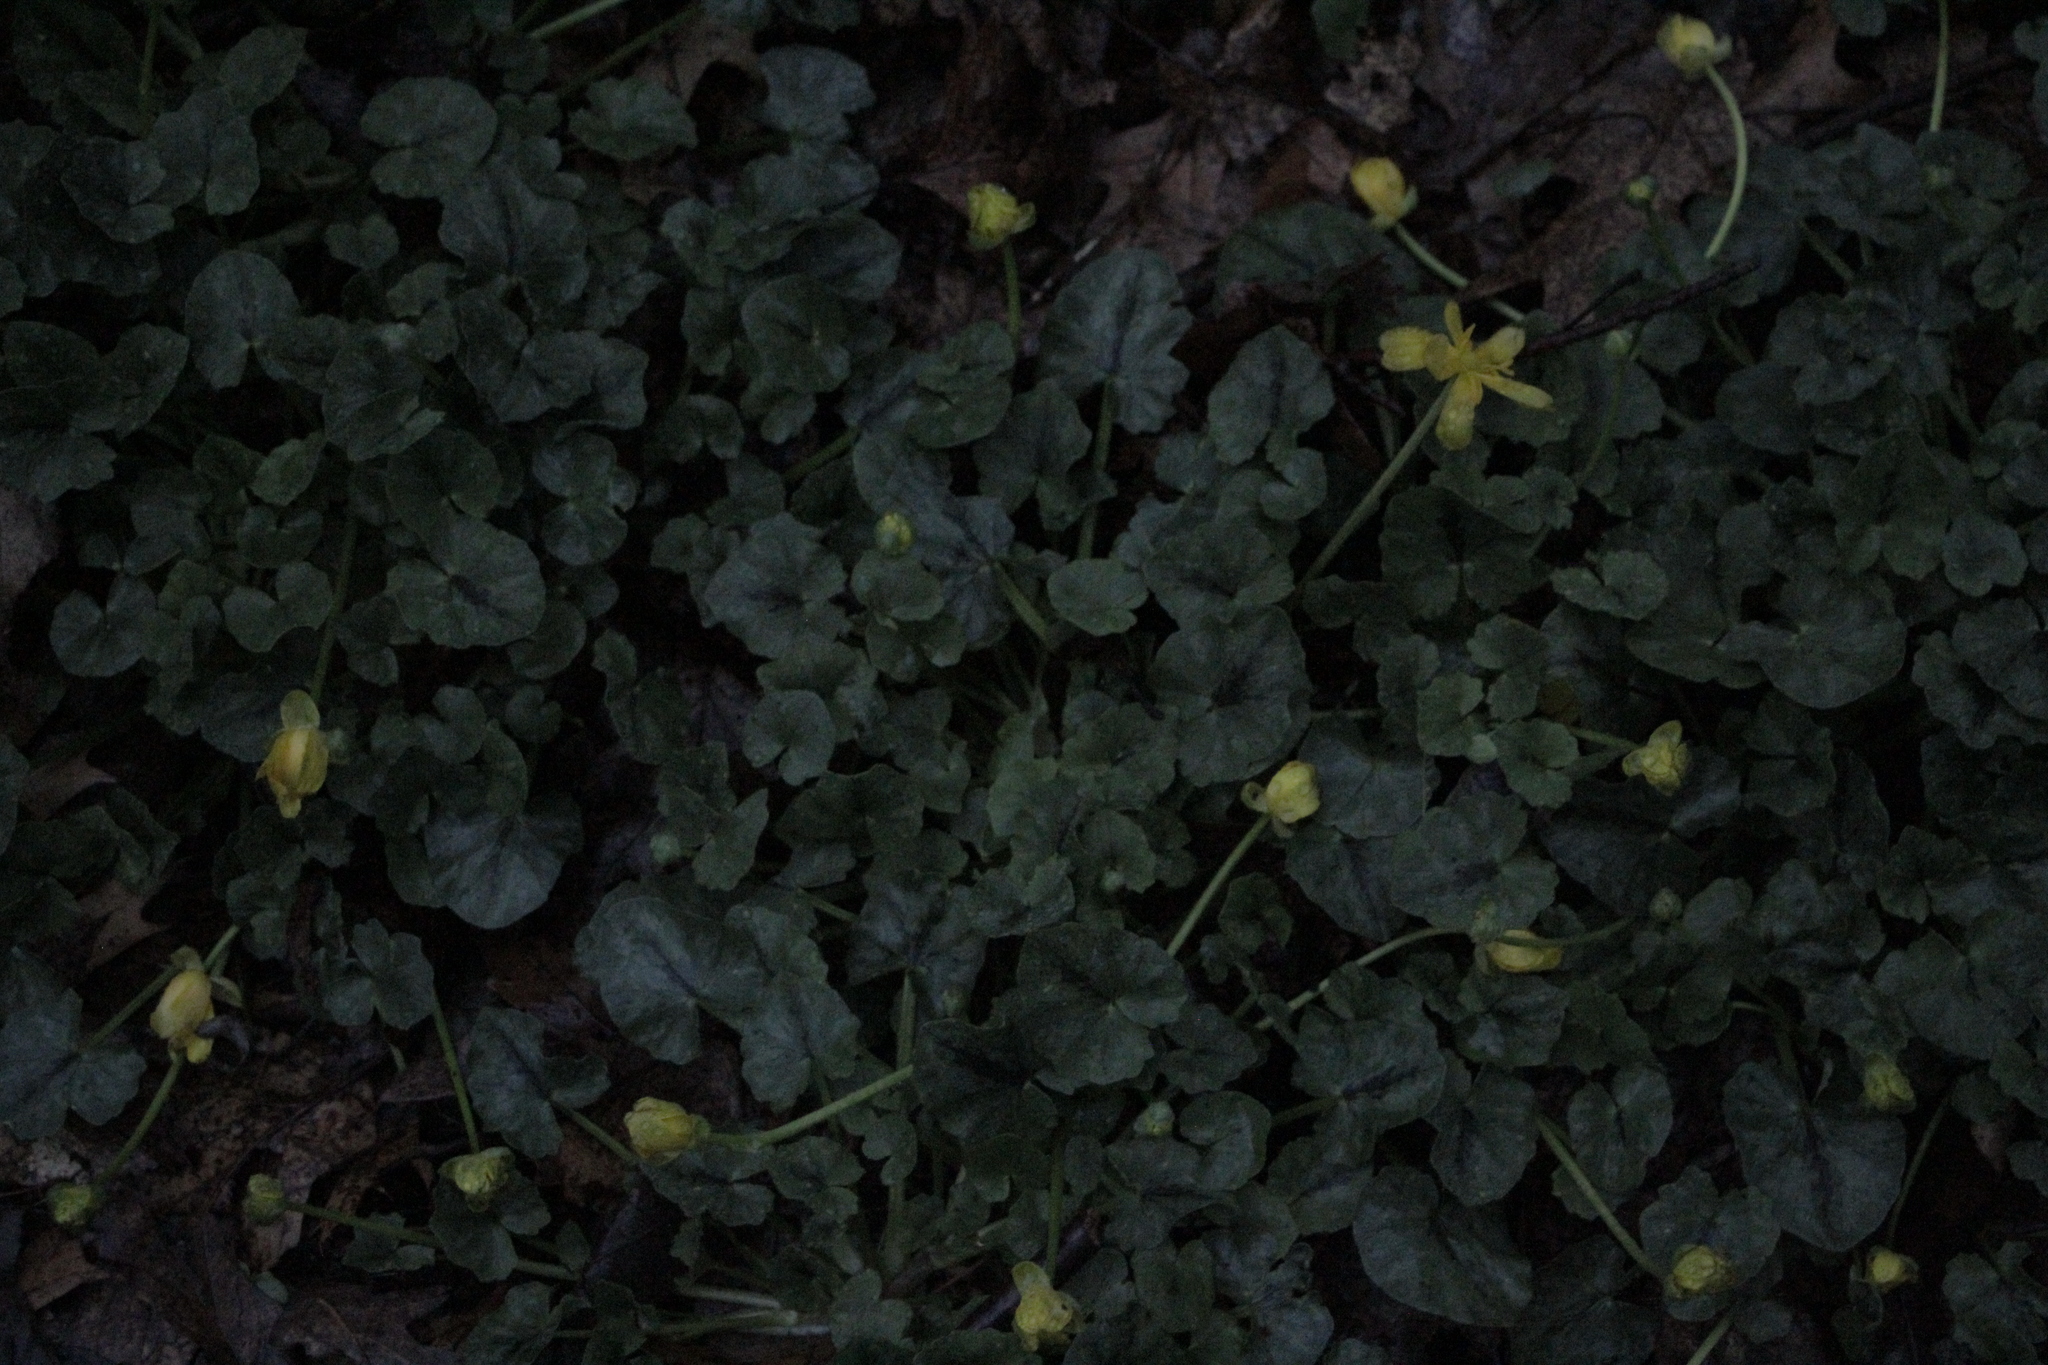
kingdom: Plantae
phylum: Tracheophyta
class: Magnoliopsida
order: Ranunculales
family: Ranunculaceae
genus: Ficaria
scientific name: Ficaria verna
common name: Lesser celandine
